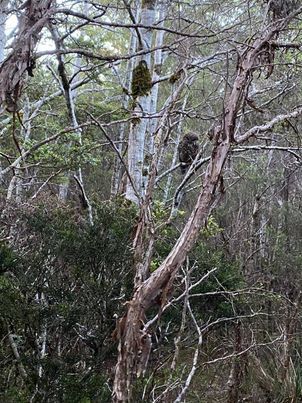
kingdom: Animalia
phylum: Chordata
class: Aves
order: Strigiformes
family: Strigidae
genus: Ninox
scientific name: Ninox novaeseelandiae
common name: Morepork
